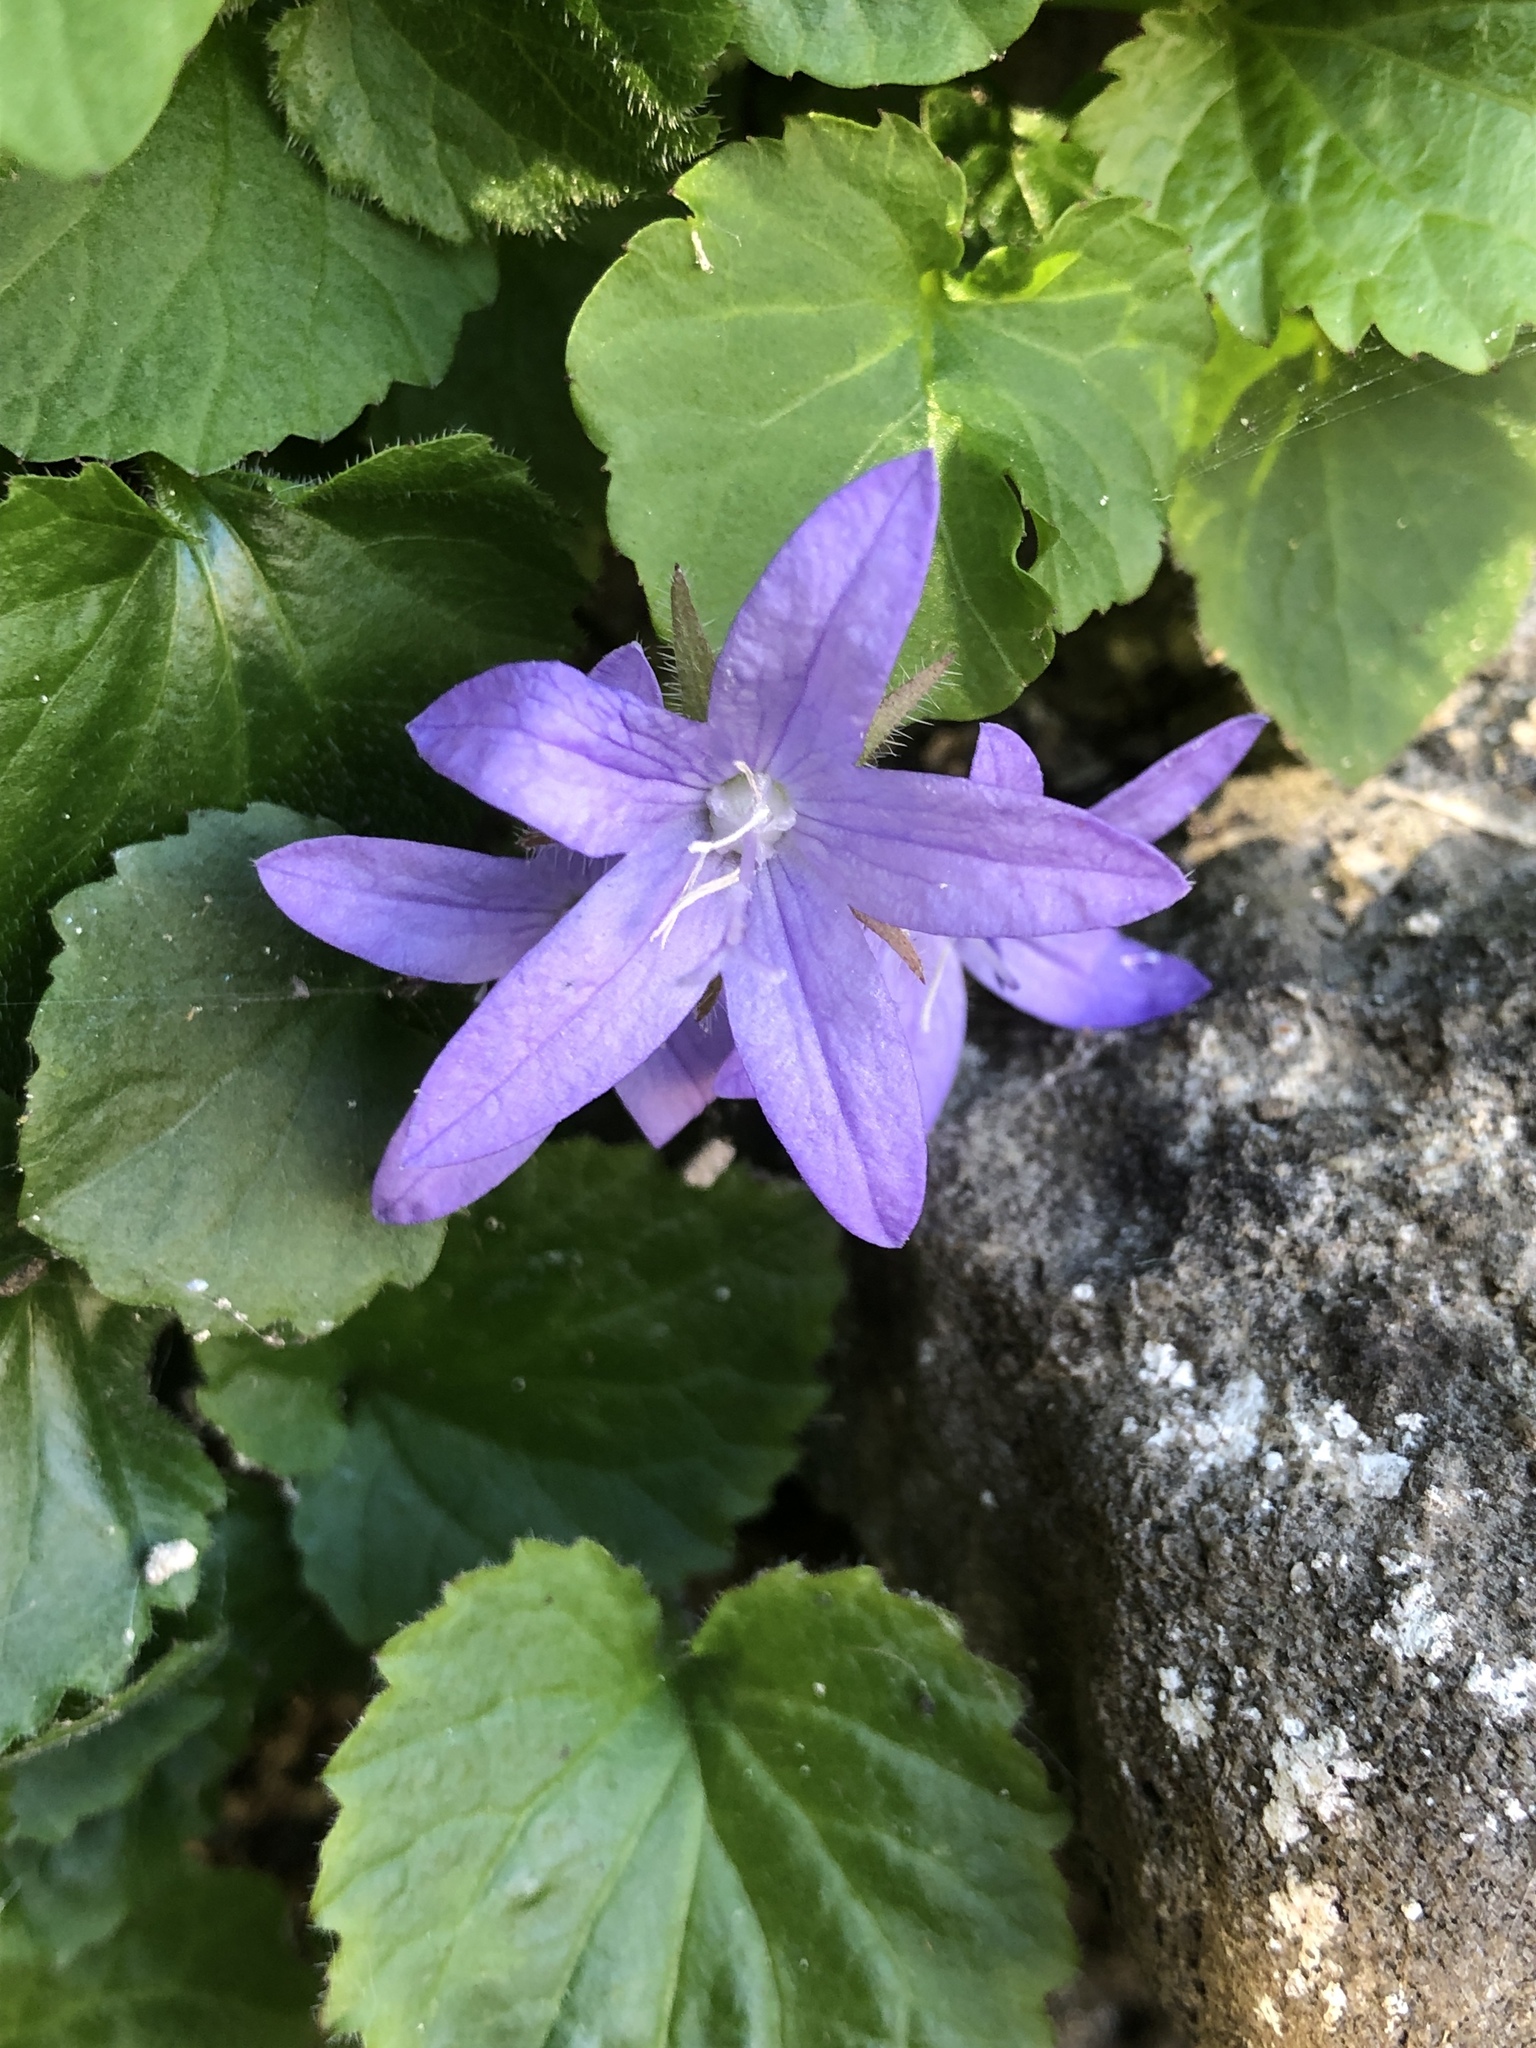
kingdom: Plantae
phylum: Tracheophyta
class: Magnoliopsida
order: Asterales
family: Campanulaceae
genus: Campanula
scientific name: Campanula poscharskyana
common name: Trailing bellflower
